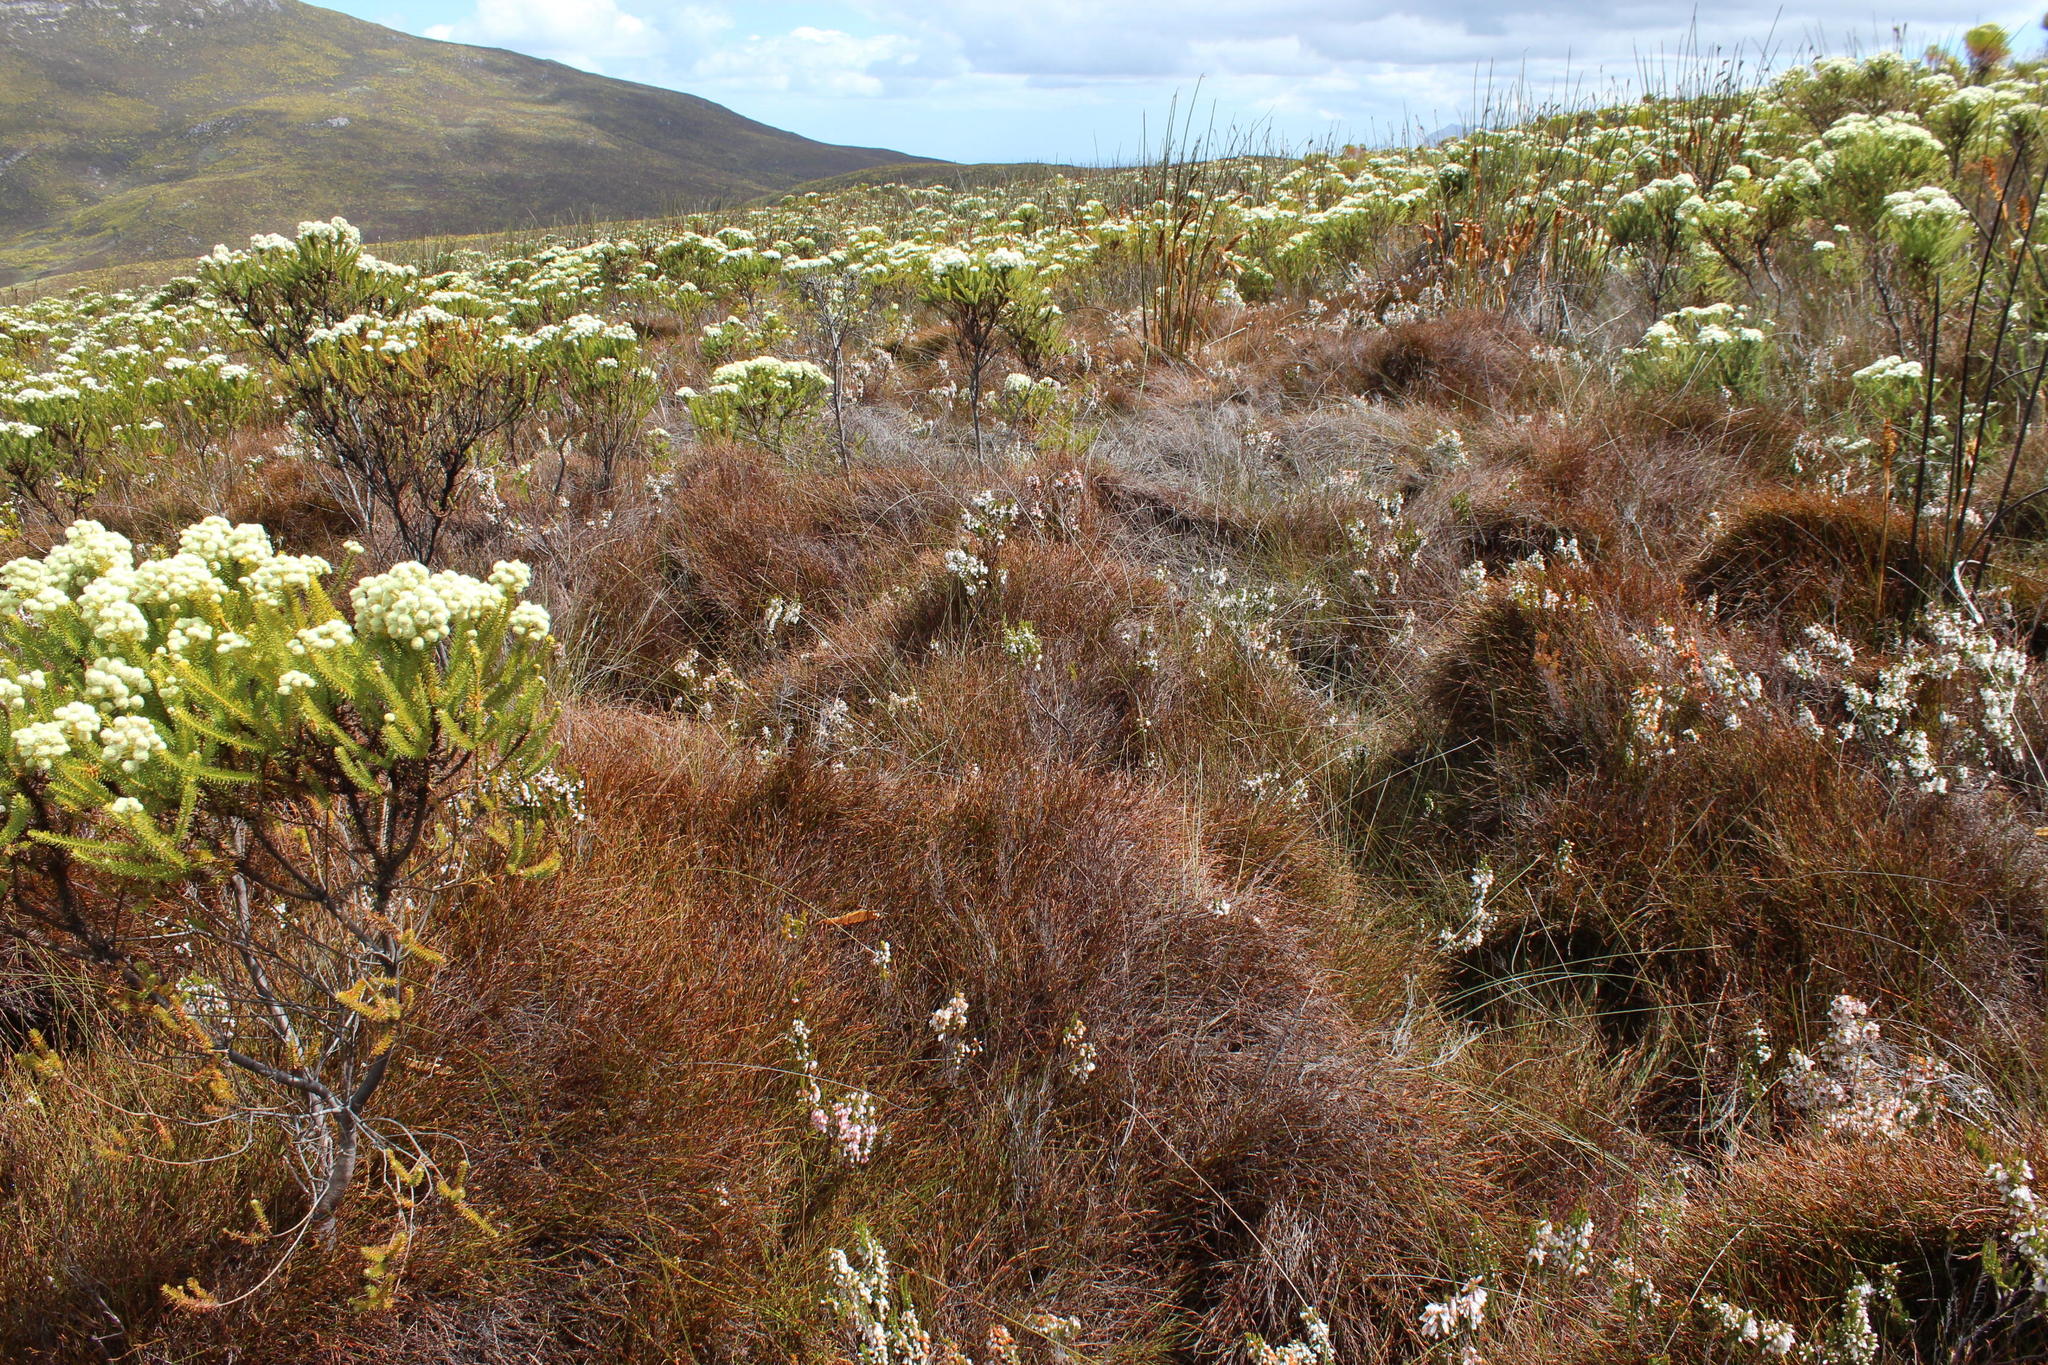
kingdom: Plantae
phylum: Tracheophyta
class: Magnoliopsida
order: Ericales
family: Ericaceae
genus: Erica
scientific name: Erica plena
